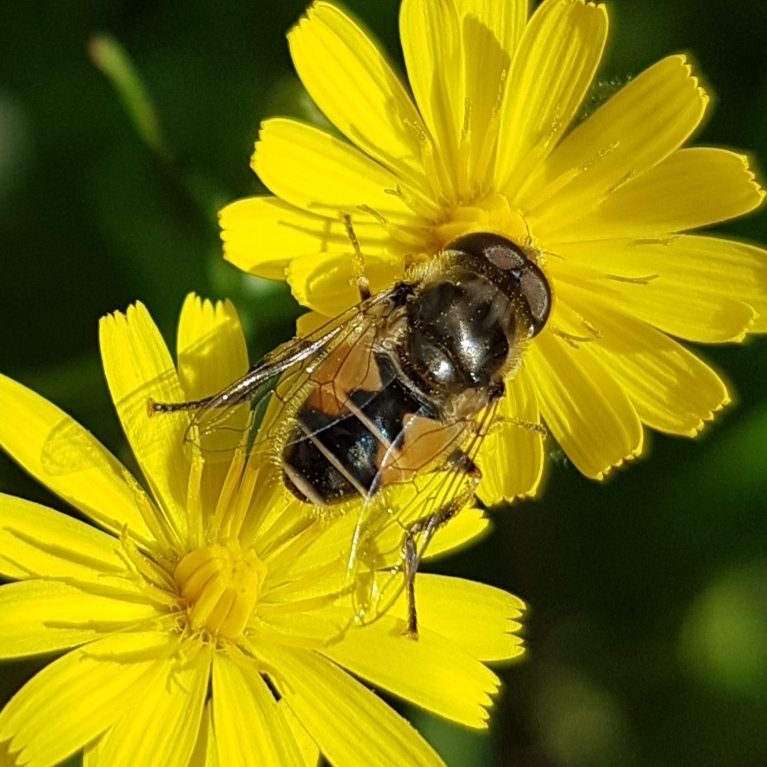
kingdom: Animalia
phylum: Arthropoda
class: Insecta
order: Diptera
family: Syrphidae
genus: Eristalis
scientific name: Eristalis arbustorum
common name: Hover fly
